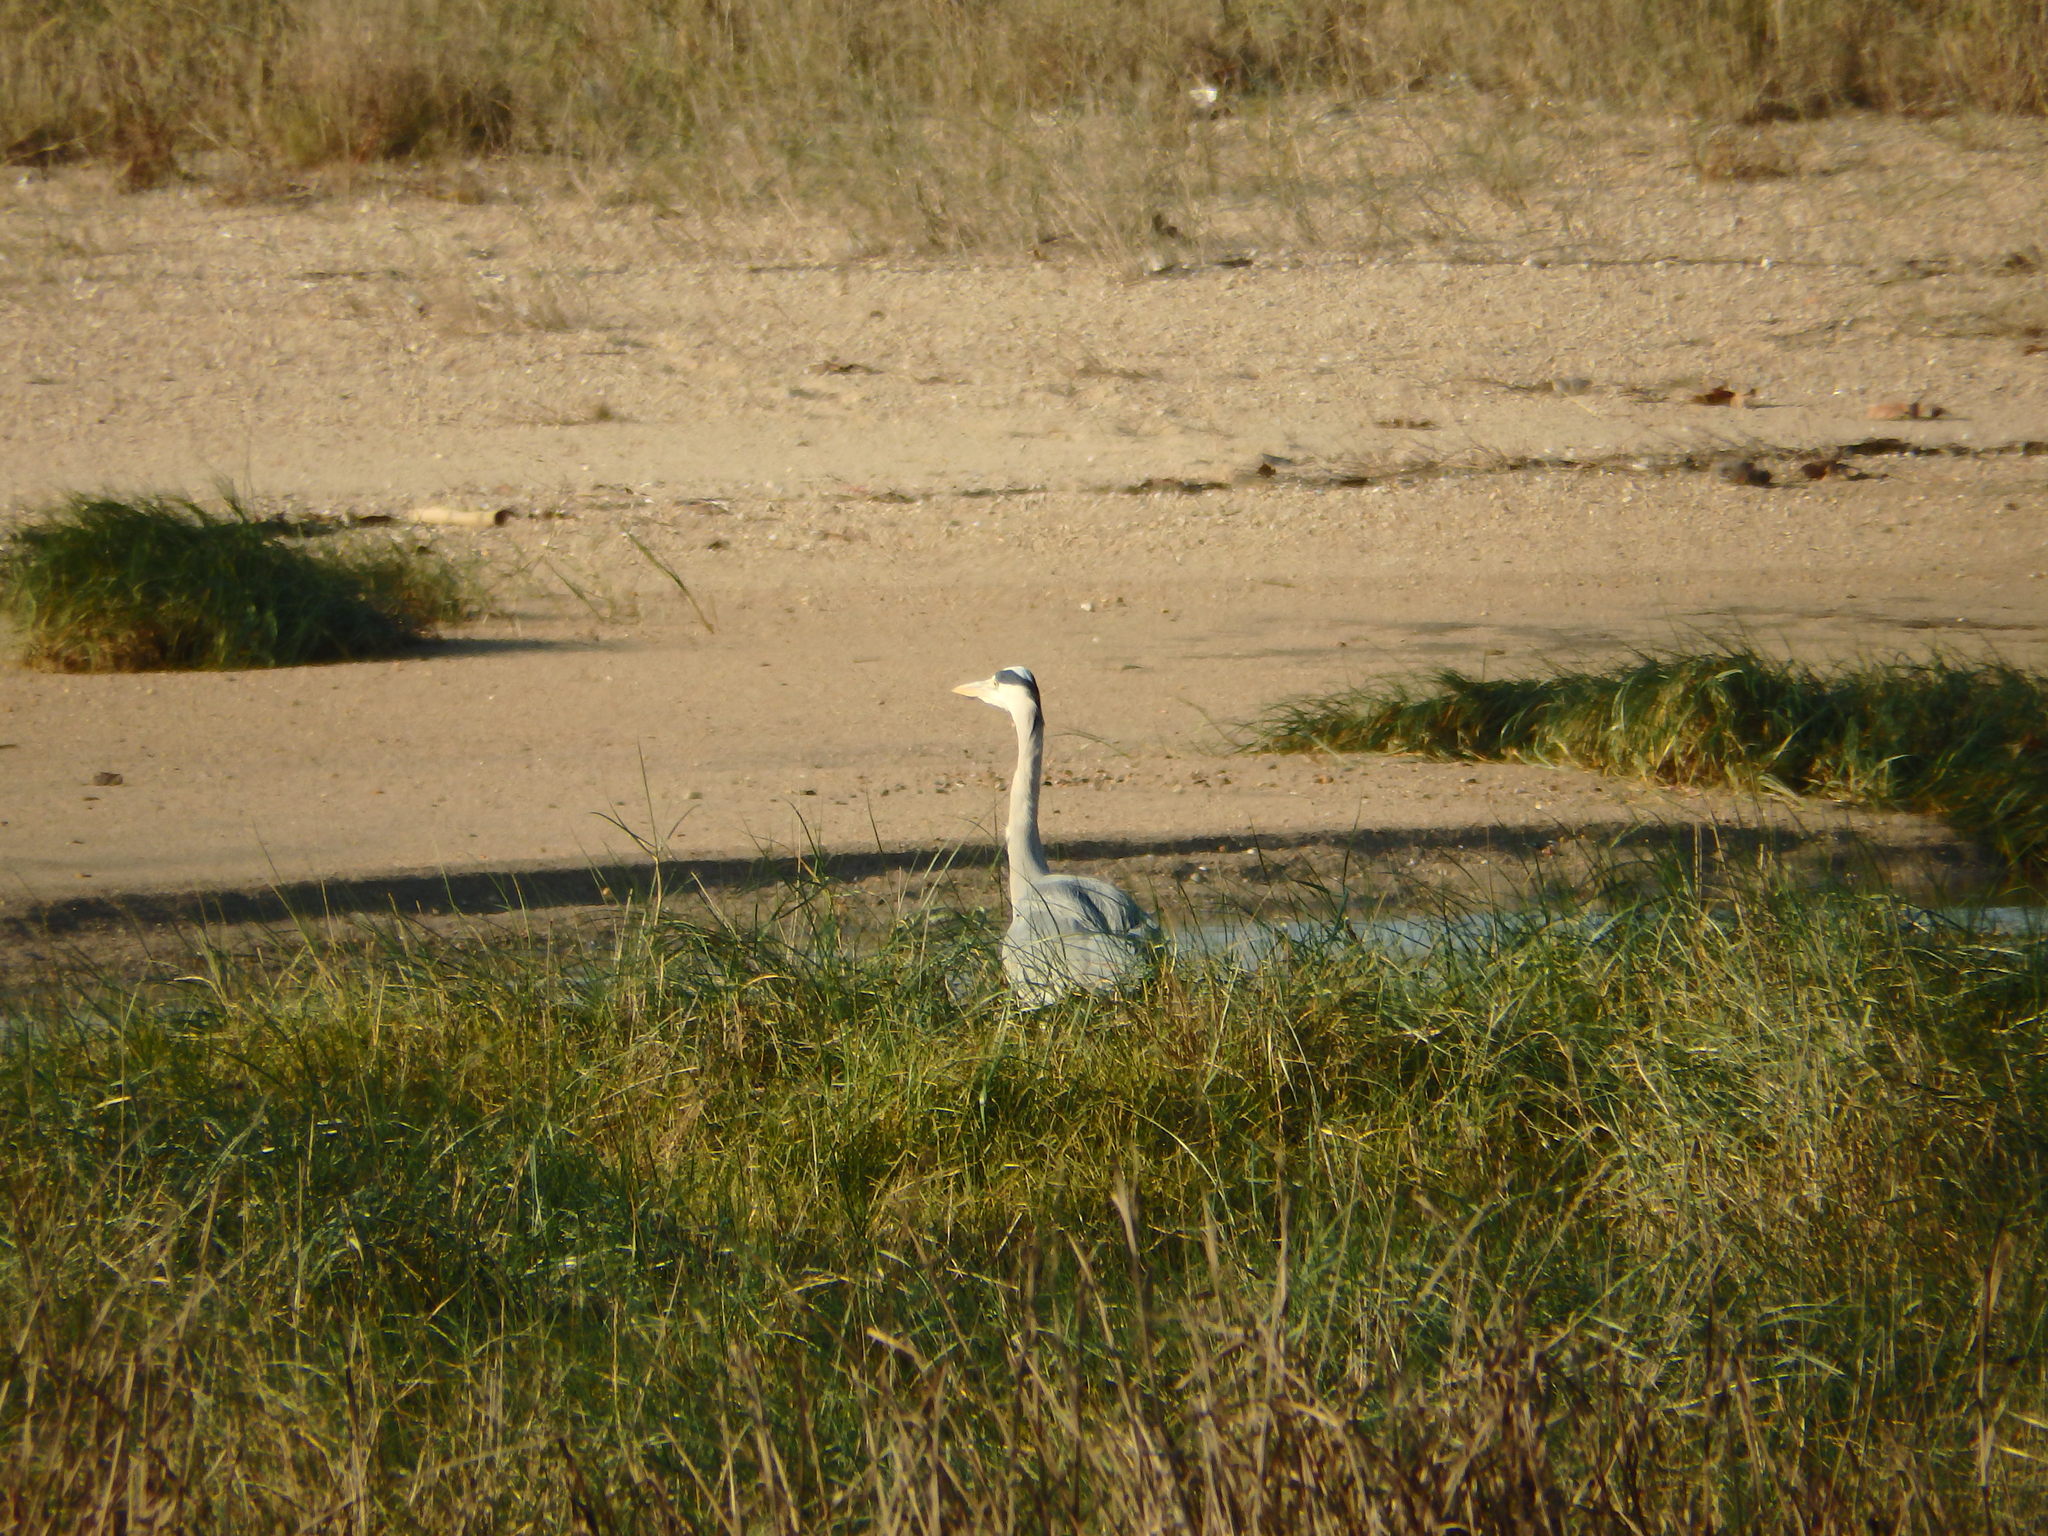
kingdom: Animalia
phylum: Chordata
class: Aves
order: Pelecaniformes
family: Ardeidae
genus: Ardea
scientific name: Ardea cinerea
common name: Grey heron
